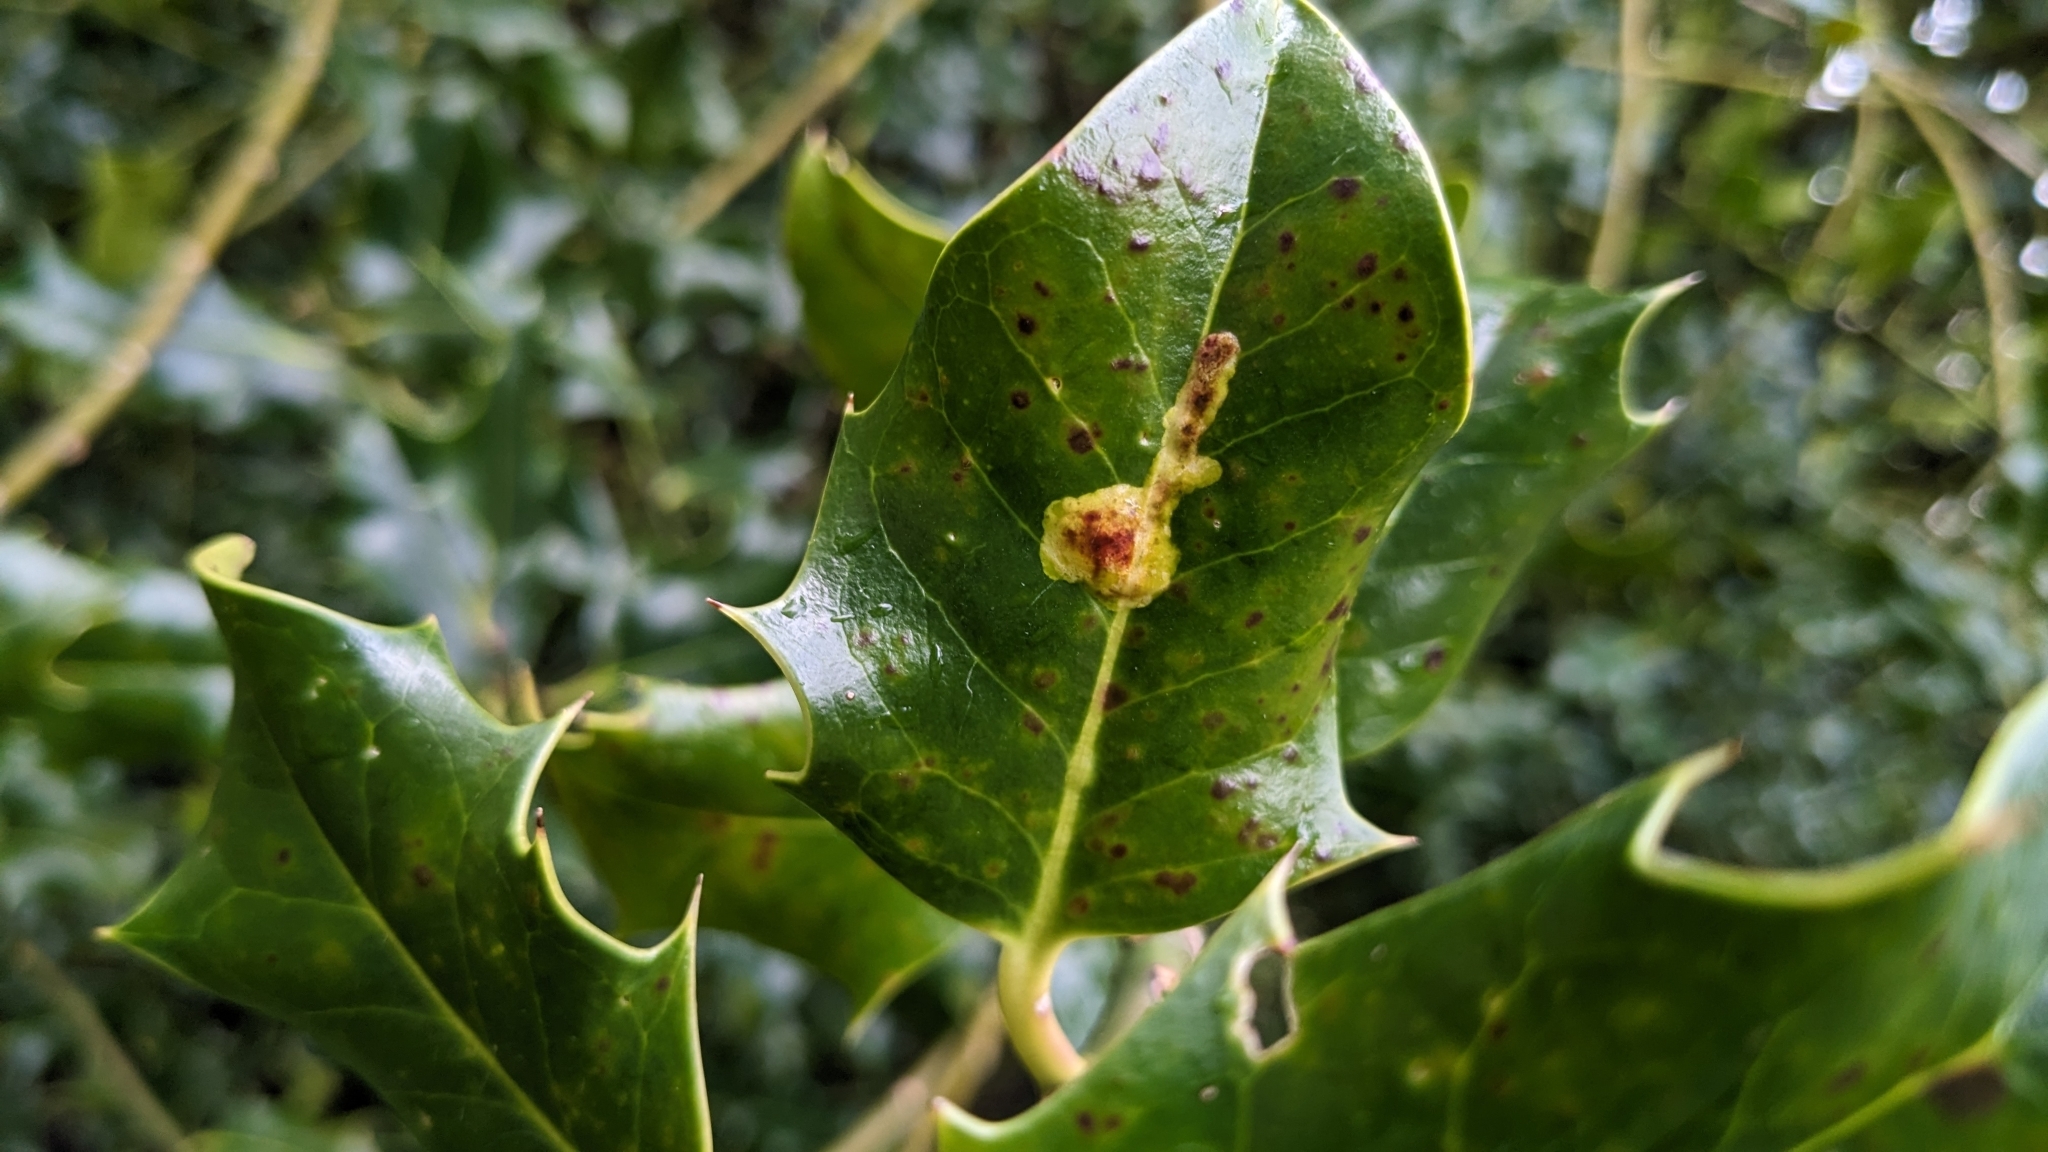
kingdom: Animalia
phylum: Arthropoda
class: Insecta
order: Diptera
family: Agromyzidae
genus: Phytomyza
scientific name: Phytomyza ilicis
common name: Holly leafminer
